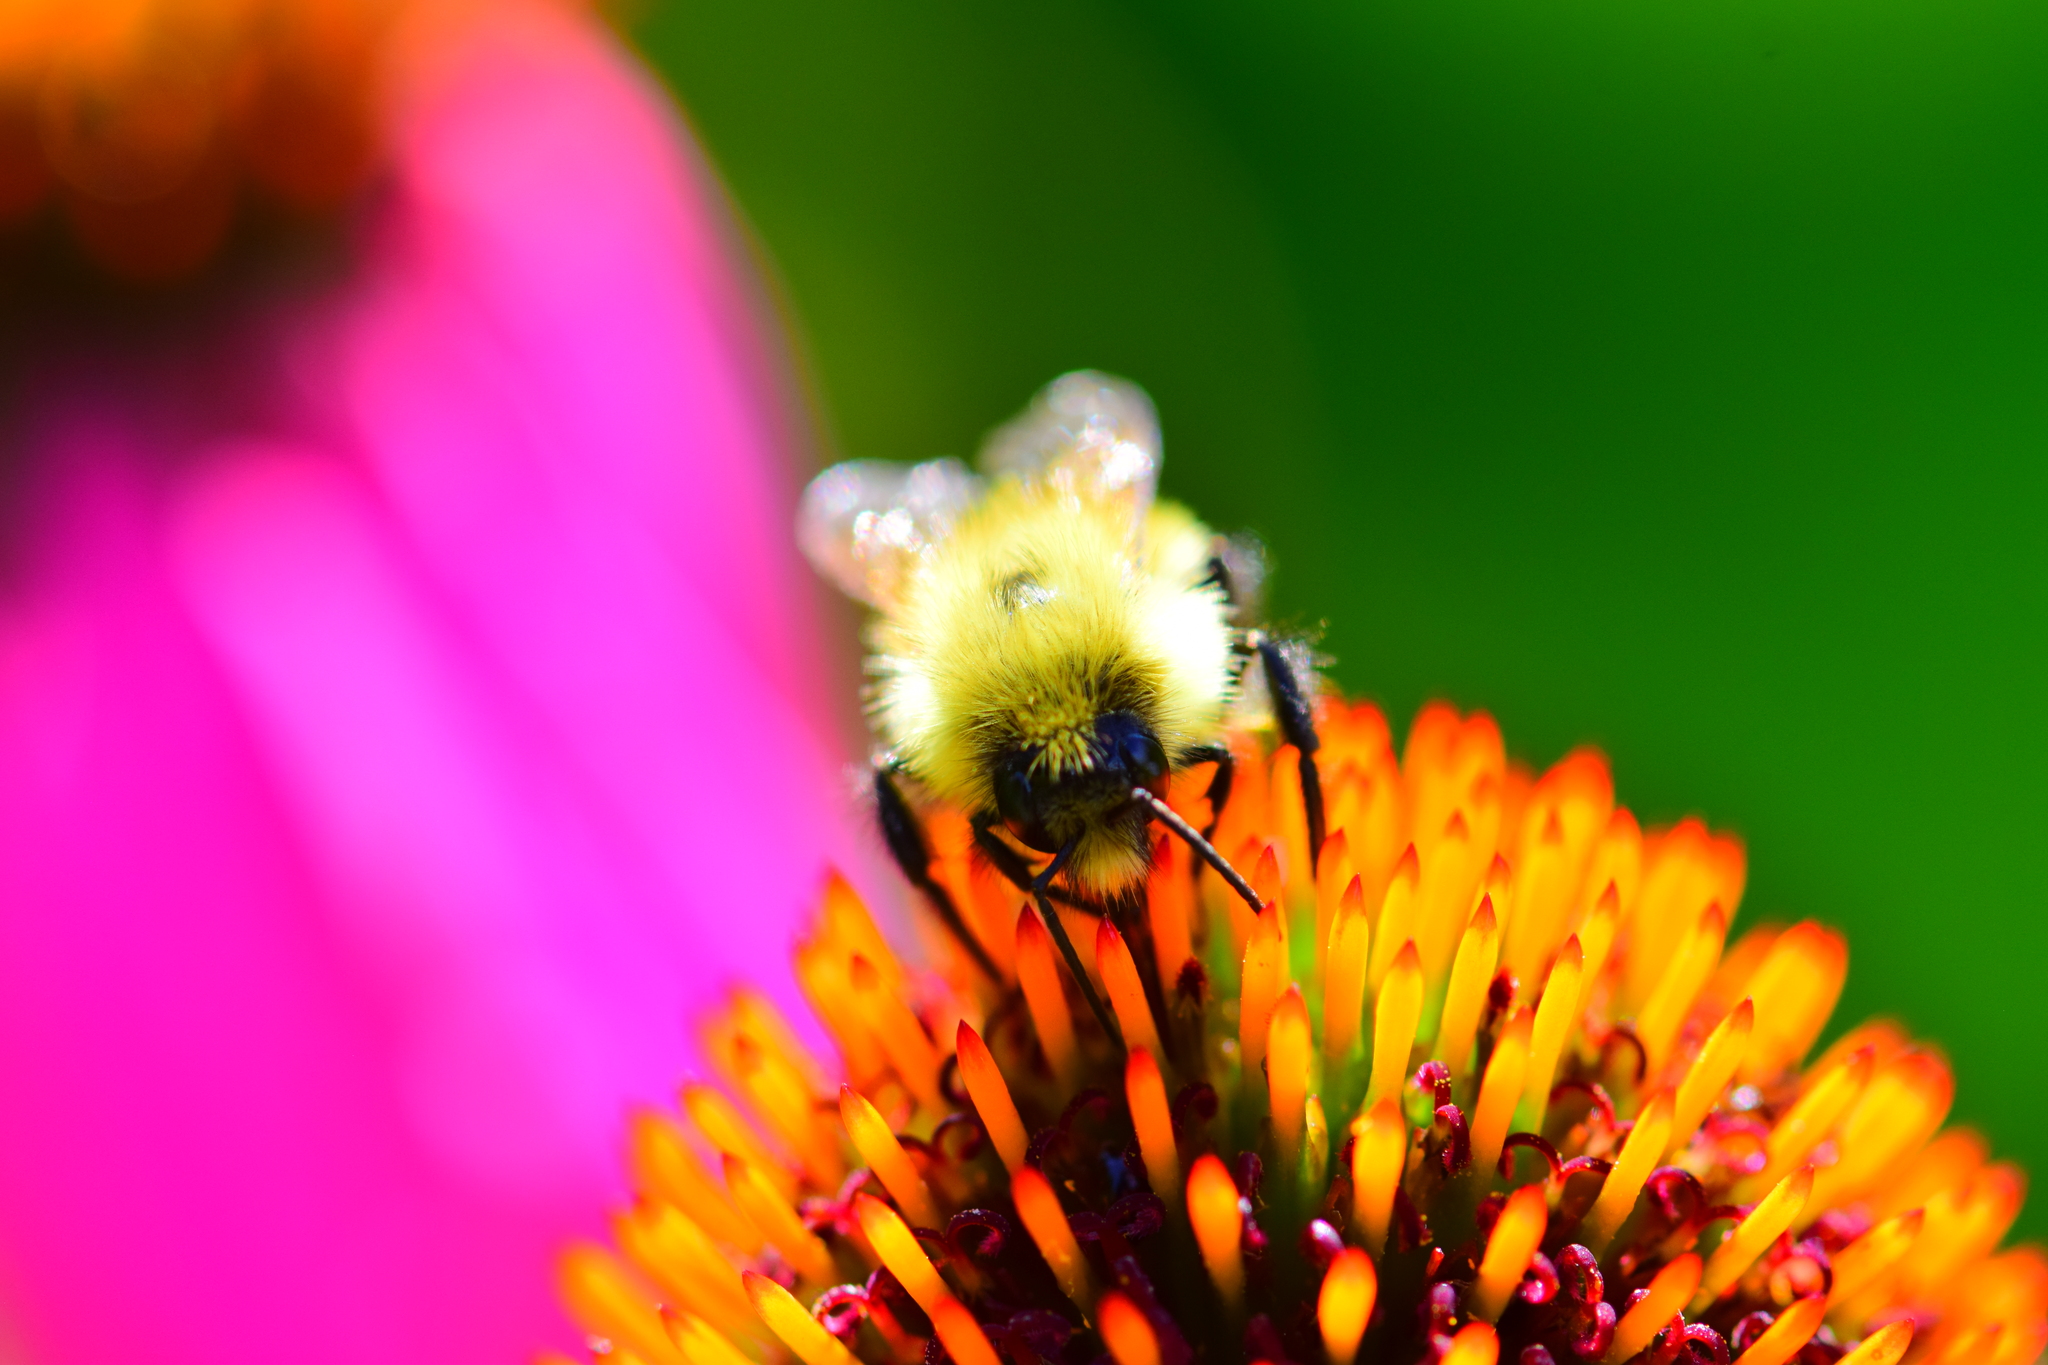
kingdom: Animalia
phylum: Arthropoda
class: Insecta
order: Hymenoptera
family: Apidae
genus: Bombus
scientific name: Bombus vagans
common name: Half-black bumble bee
